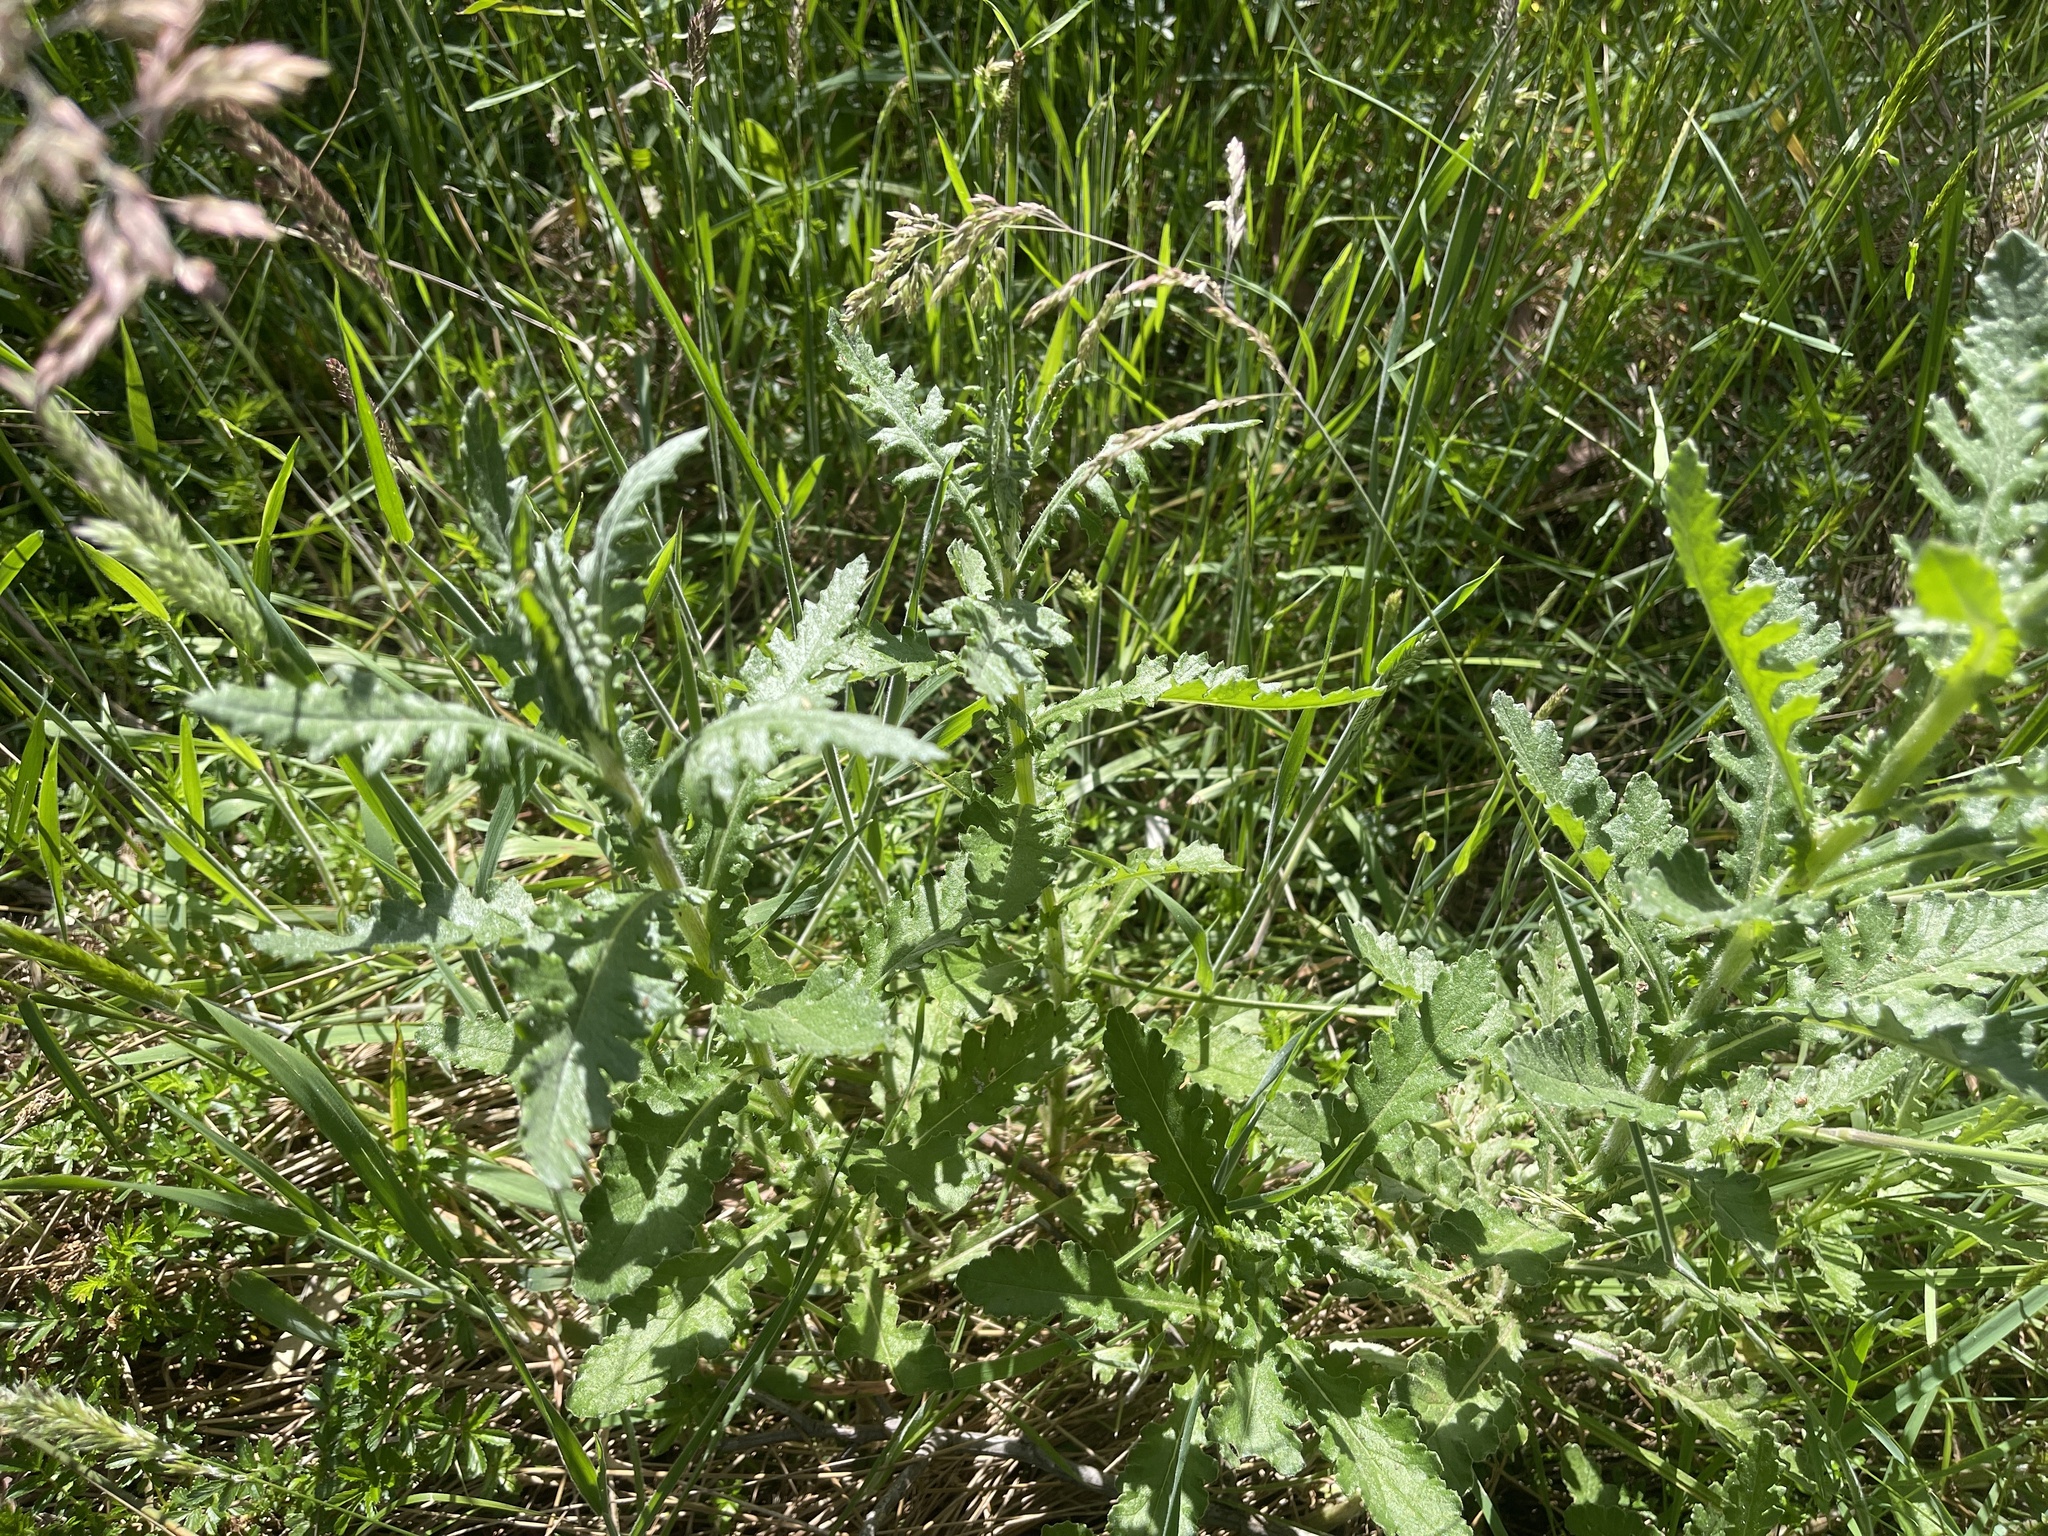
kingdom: Plantae
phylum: Tracheophyta
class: Magnoliopsida
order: Asterales
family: Asteraceae
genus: Senecio
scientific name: Senecio glomeratus
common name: Cutleaf burnweed
